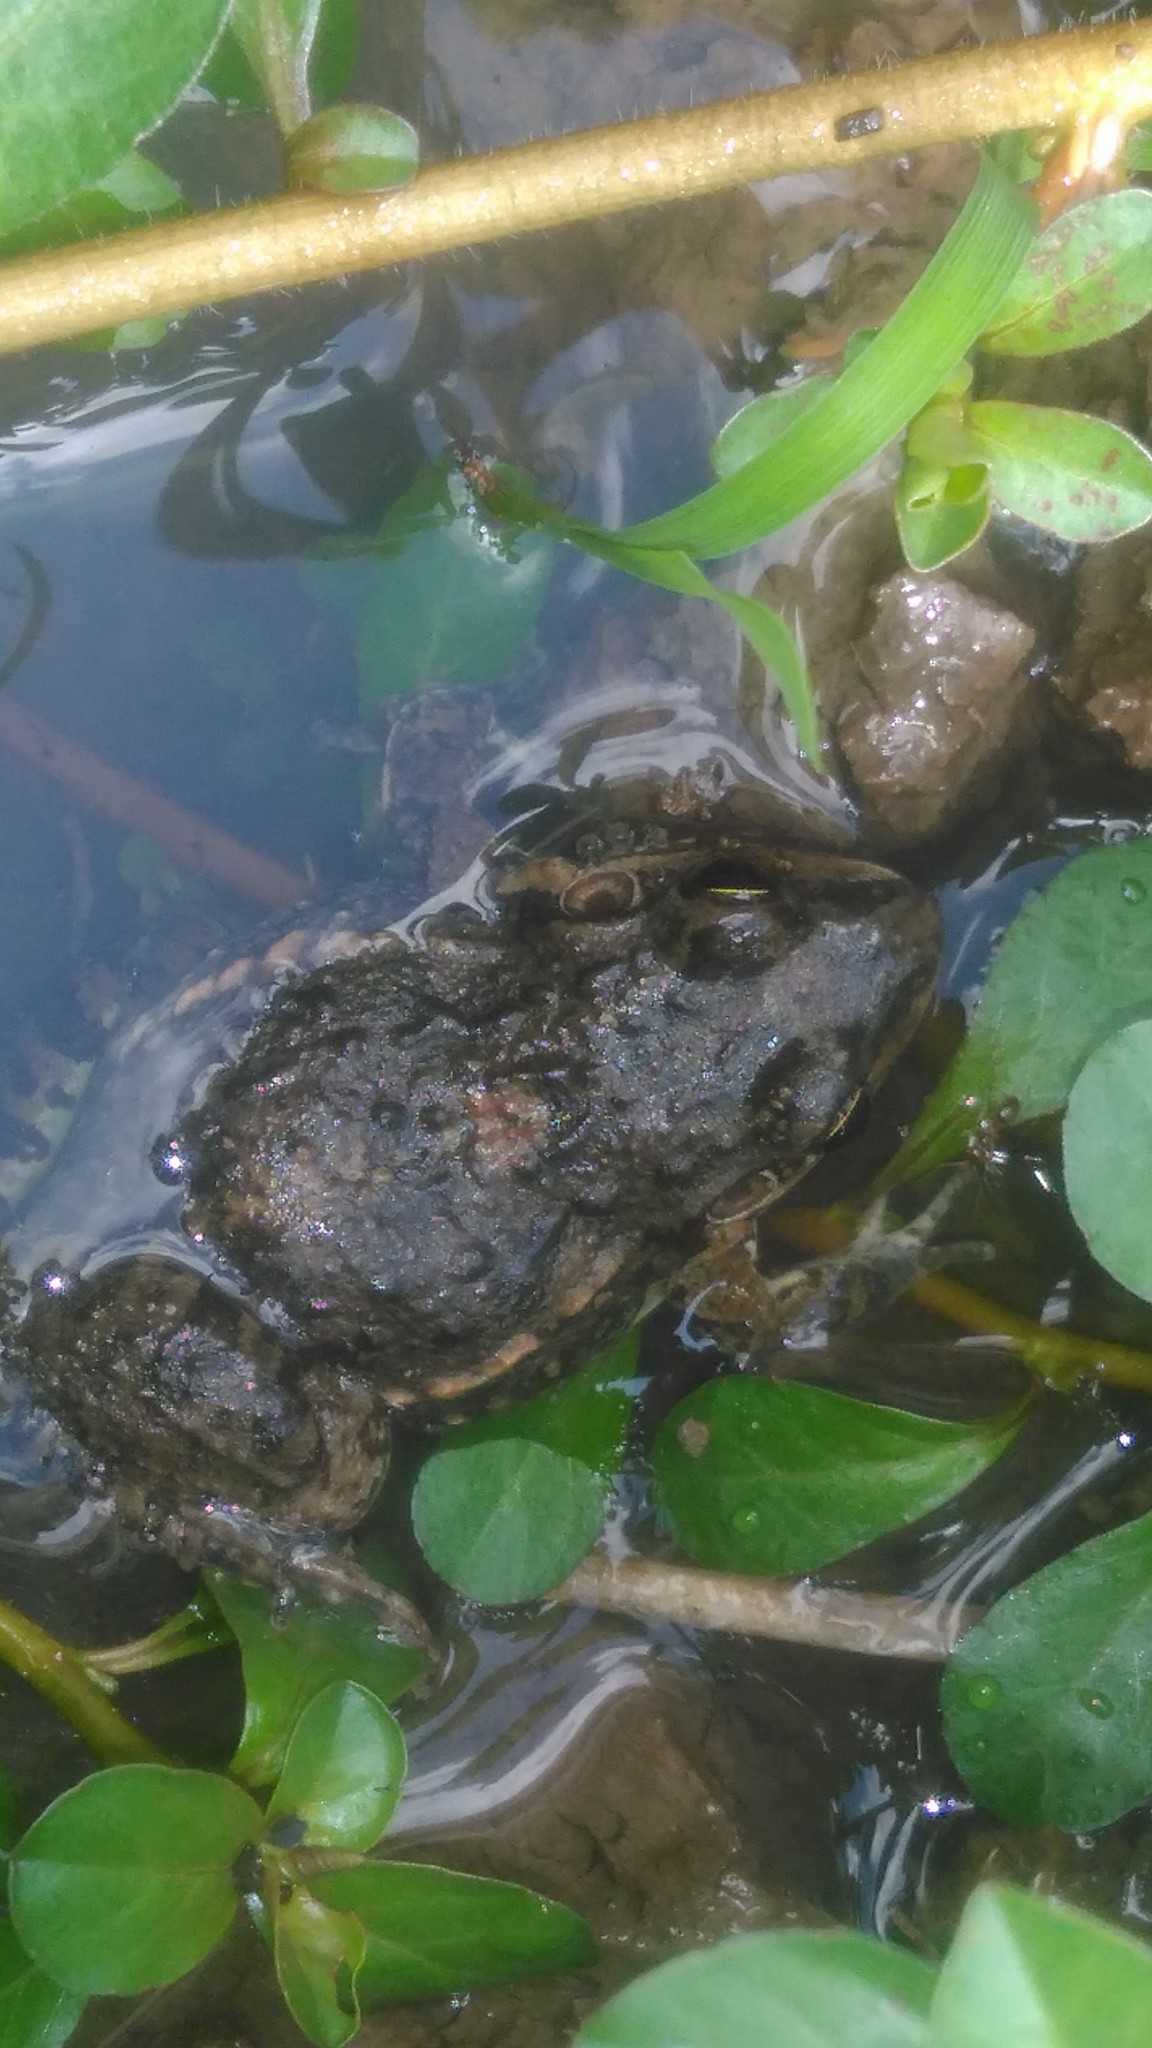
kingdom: Animalia
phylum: Chordata
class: Amphibia
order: Anura
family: Leptodactylidae
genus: Leptodactylus
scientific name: Leptodactylus latinasus
